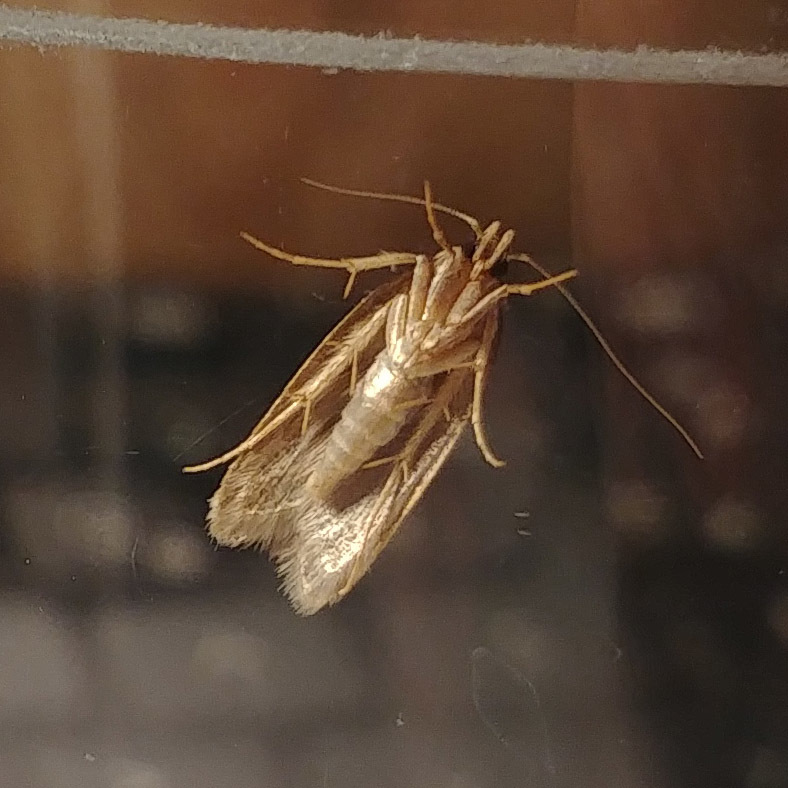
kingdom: Animalia
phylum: Arthropoda
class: Insecta
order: Lepidoptera
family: Oecophoridae
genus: Hofmannophila
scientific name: Hofmannophila pseudospretella
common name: Brown house moth
